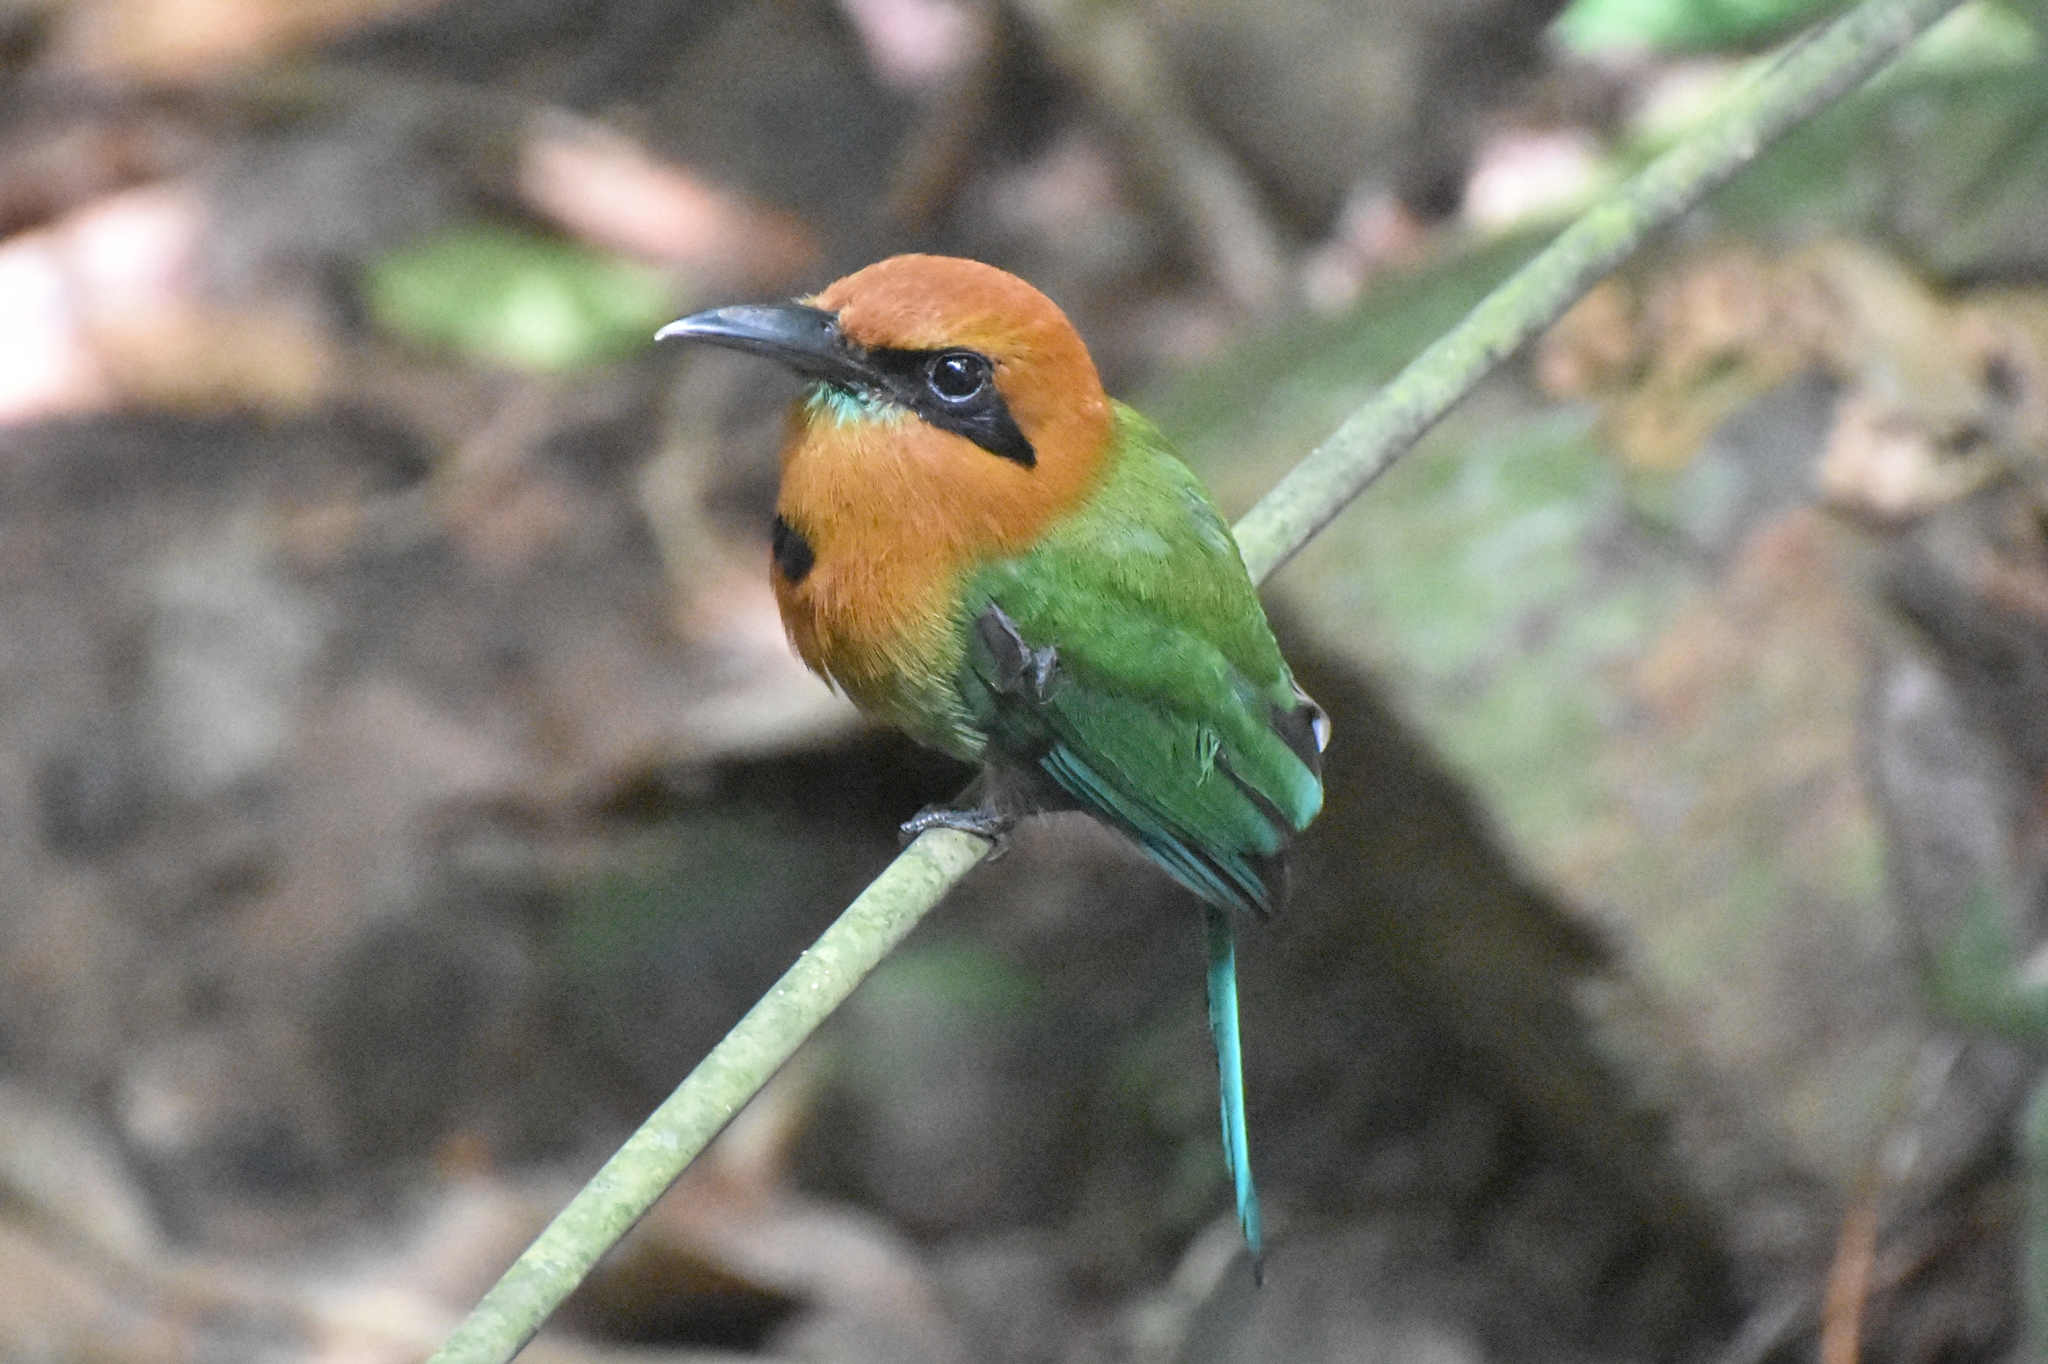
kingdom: Animalia
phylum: Chordata
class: Aves
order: Coraciiformes
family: Momotidae
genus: Electron
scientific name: Electron platyrhynchum
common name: Broad-billed motmot
